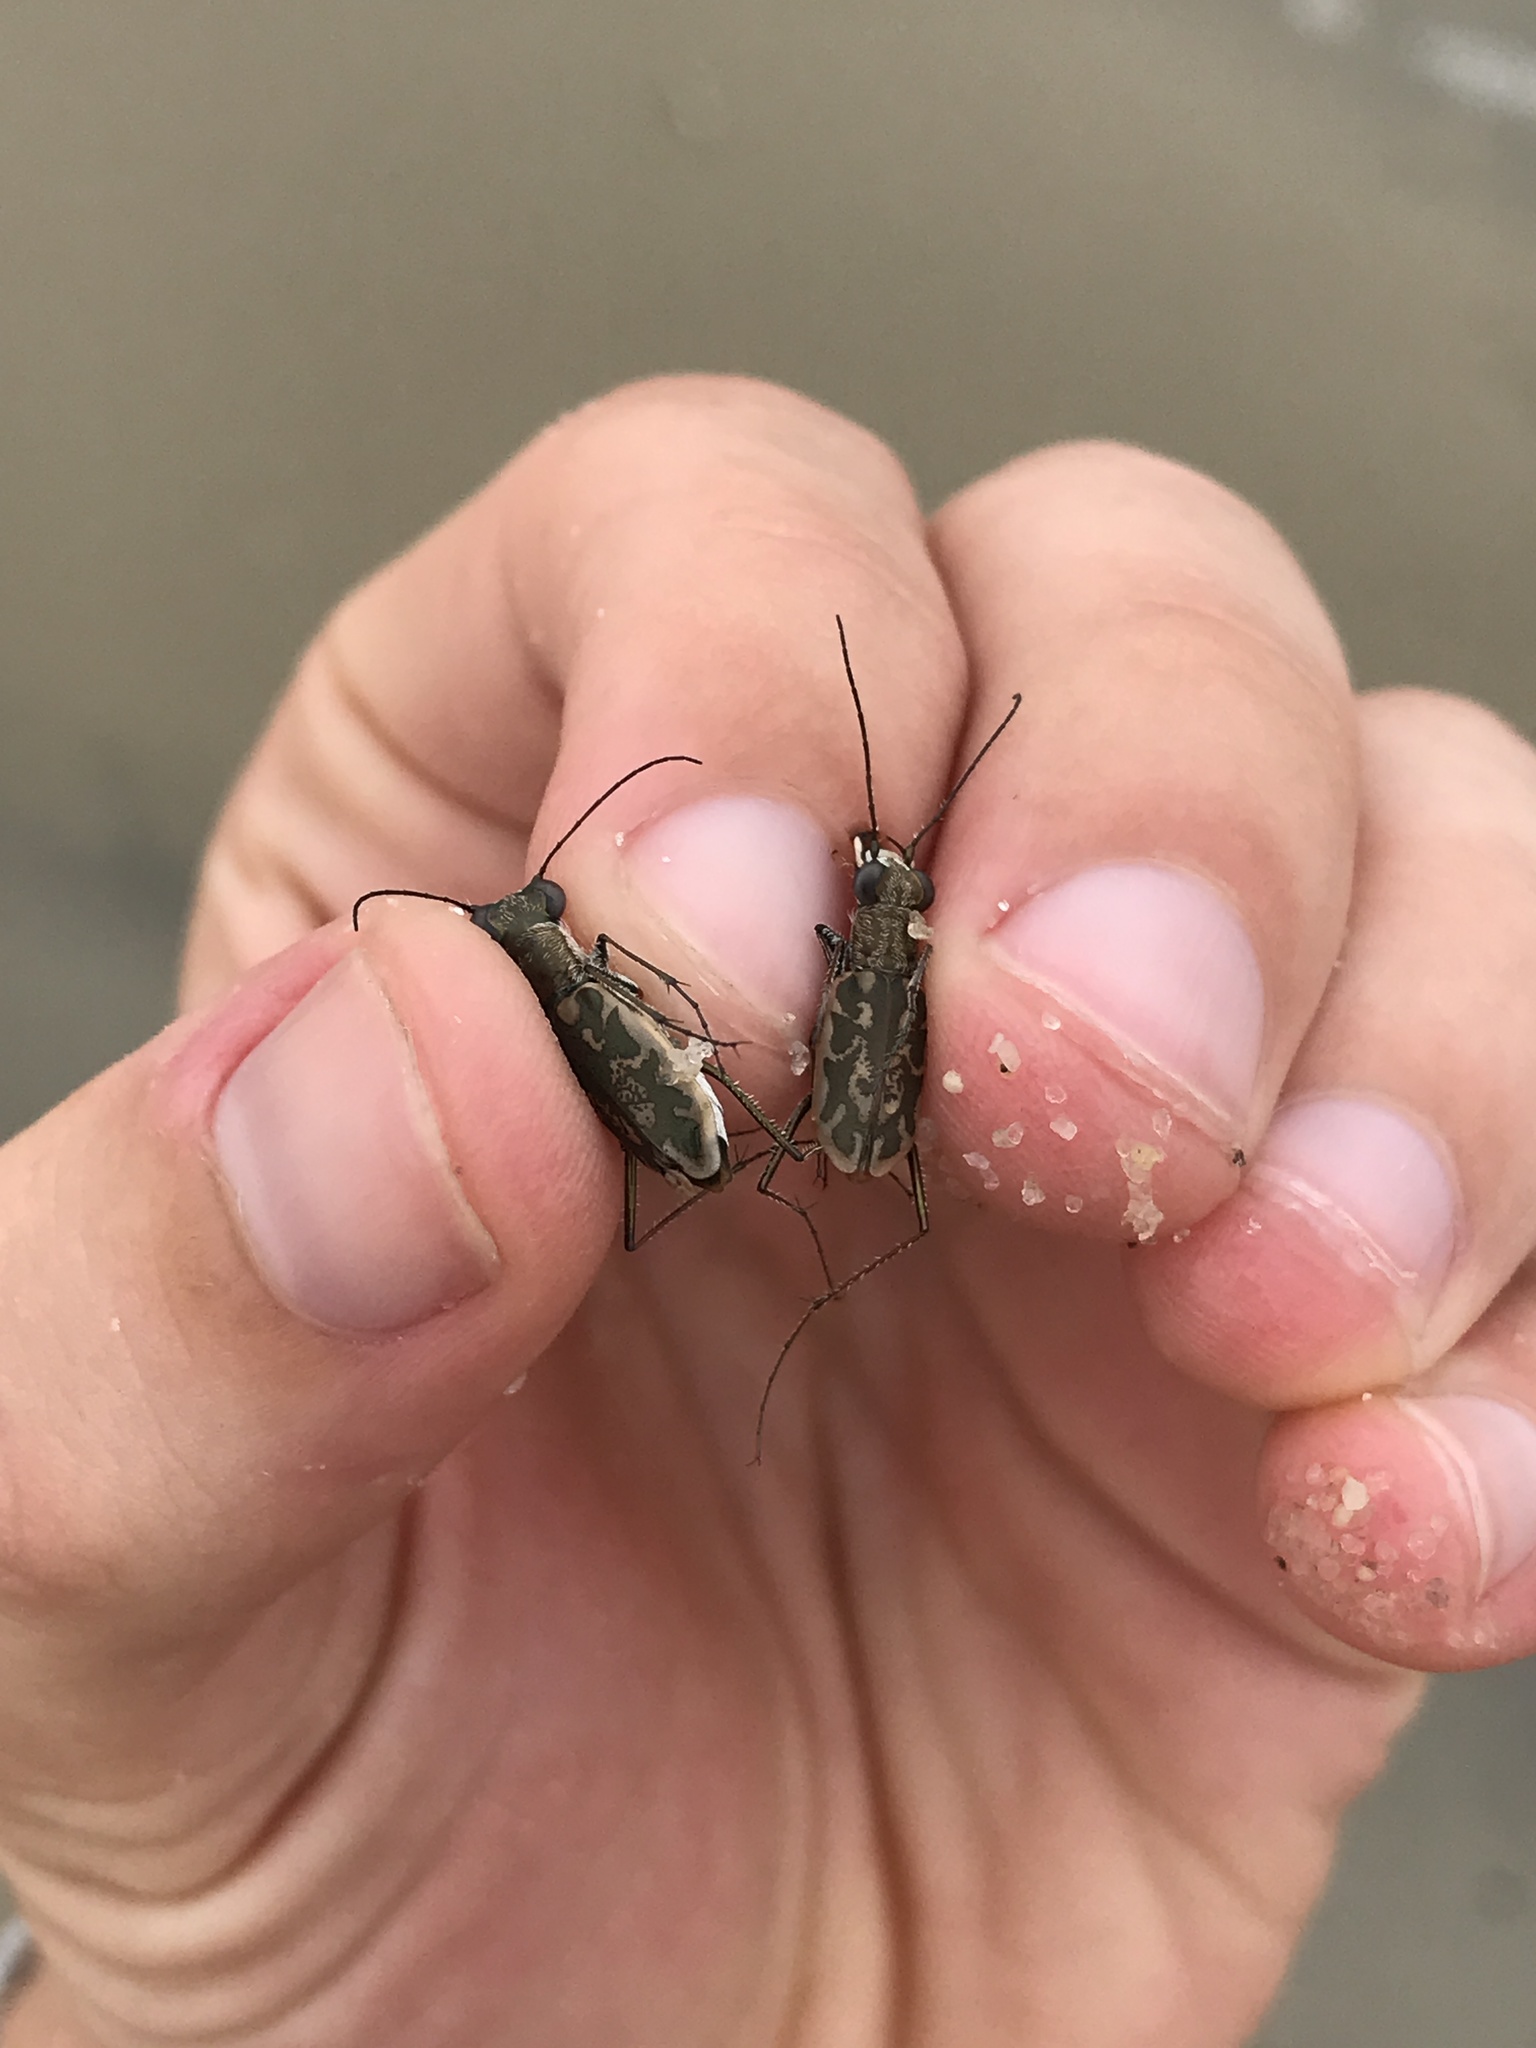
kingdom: Animalia
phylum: Arthropoda
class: Insecta
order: Coleoptera
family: Carabidae
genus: Ellipsoptera
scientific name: Ellipsoptera hamata
